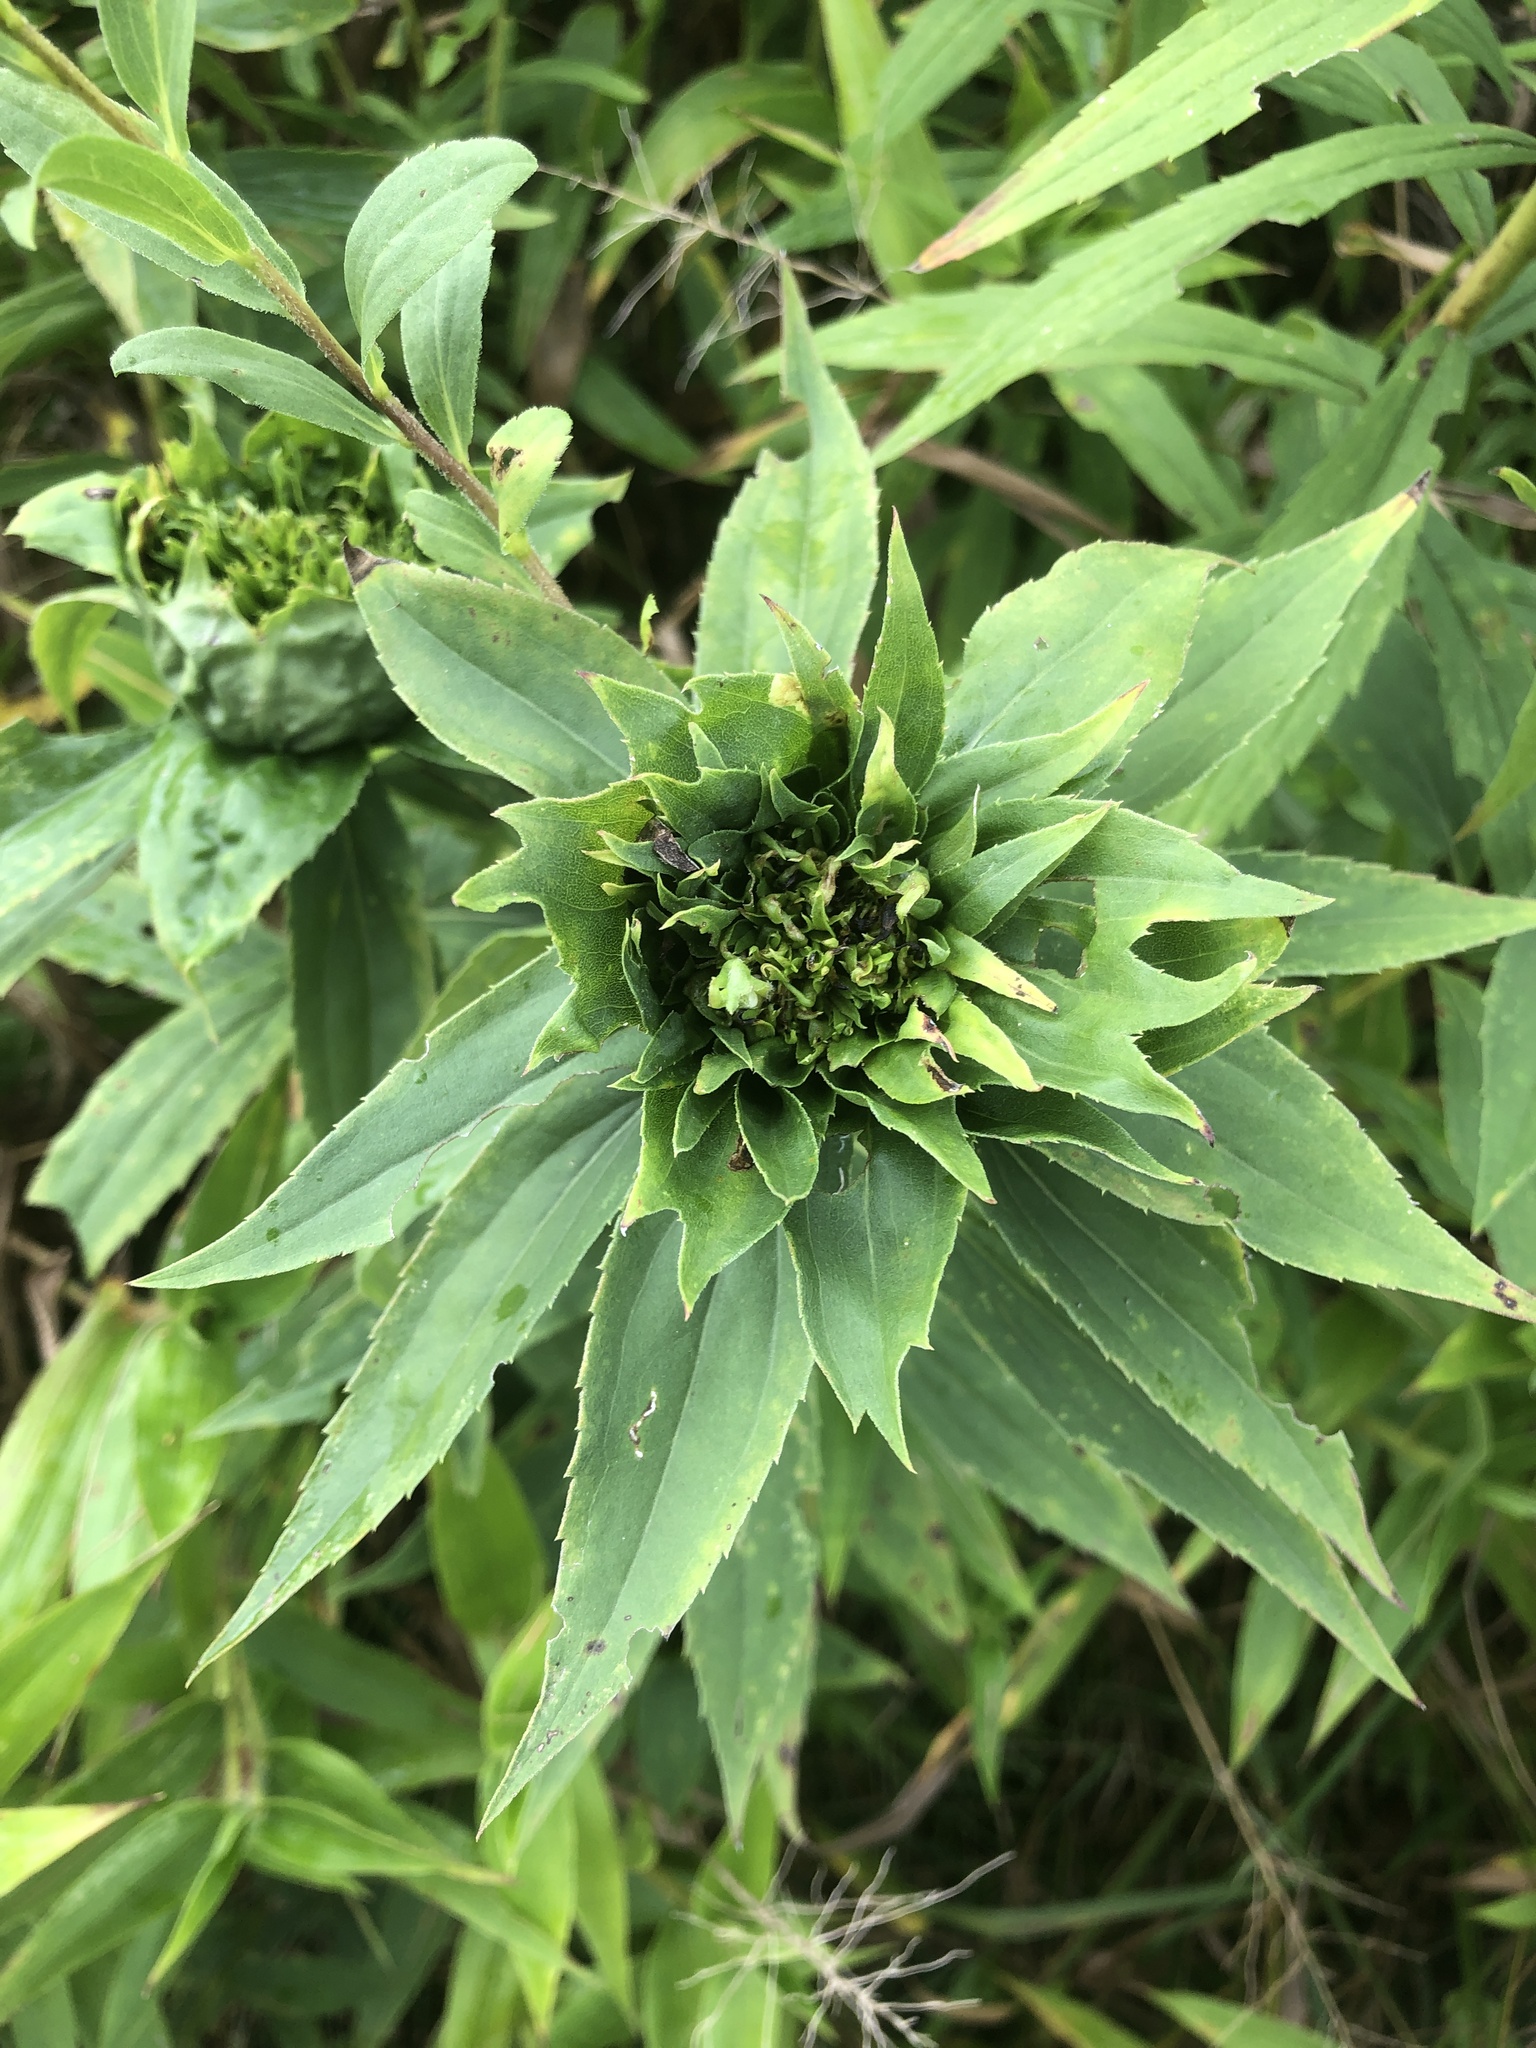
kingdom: Animalia
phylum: Arthropoda
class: Insecta
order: Diptera
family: Cecidomyiidae
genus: Rhopalomyia
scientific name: Rhopalomyia capitata
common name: Giant goldenrod bunch gall midge
